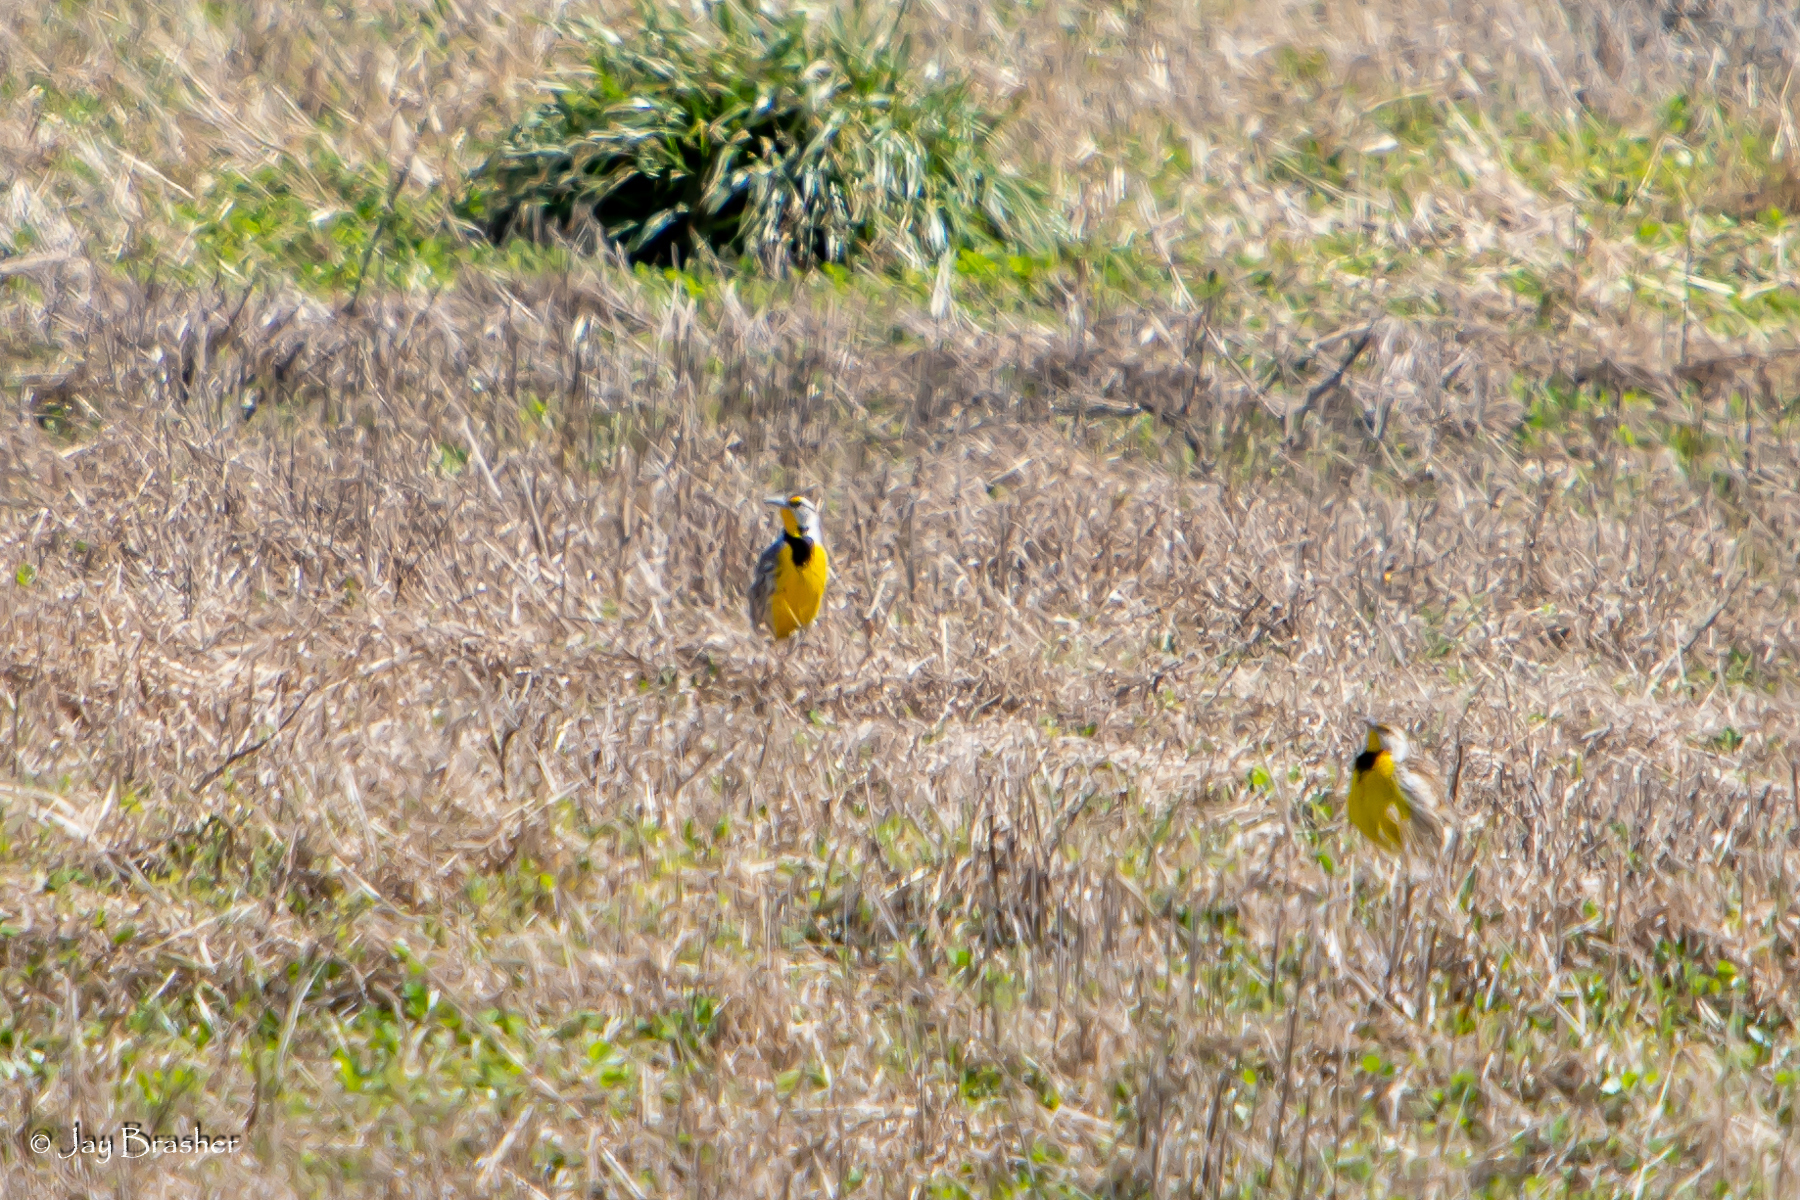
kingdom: Animalia
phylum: Chordata
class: Aves
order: Passeriformes
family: Icteridae
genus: Sturnella
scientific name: Sturnella magna
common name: Eastern meadowlark
